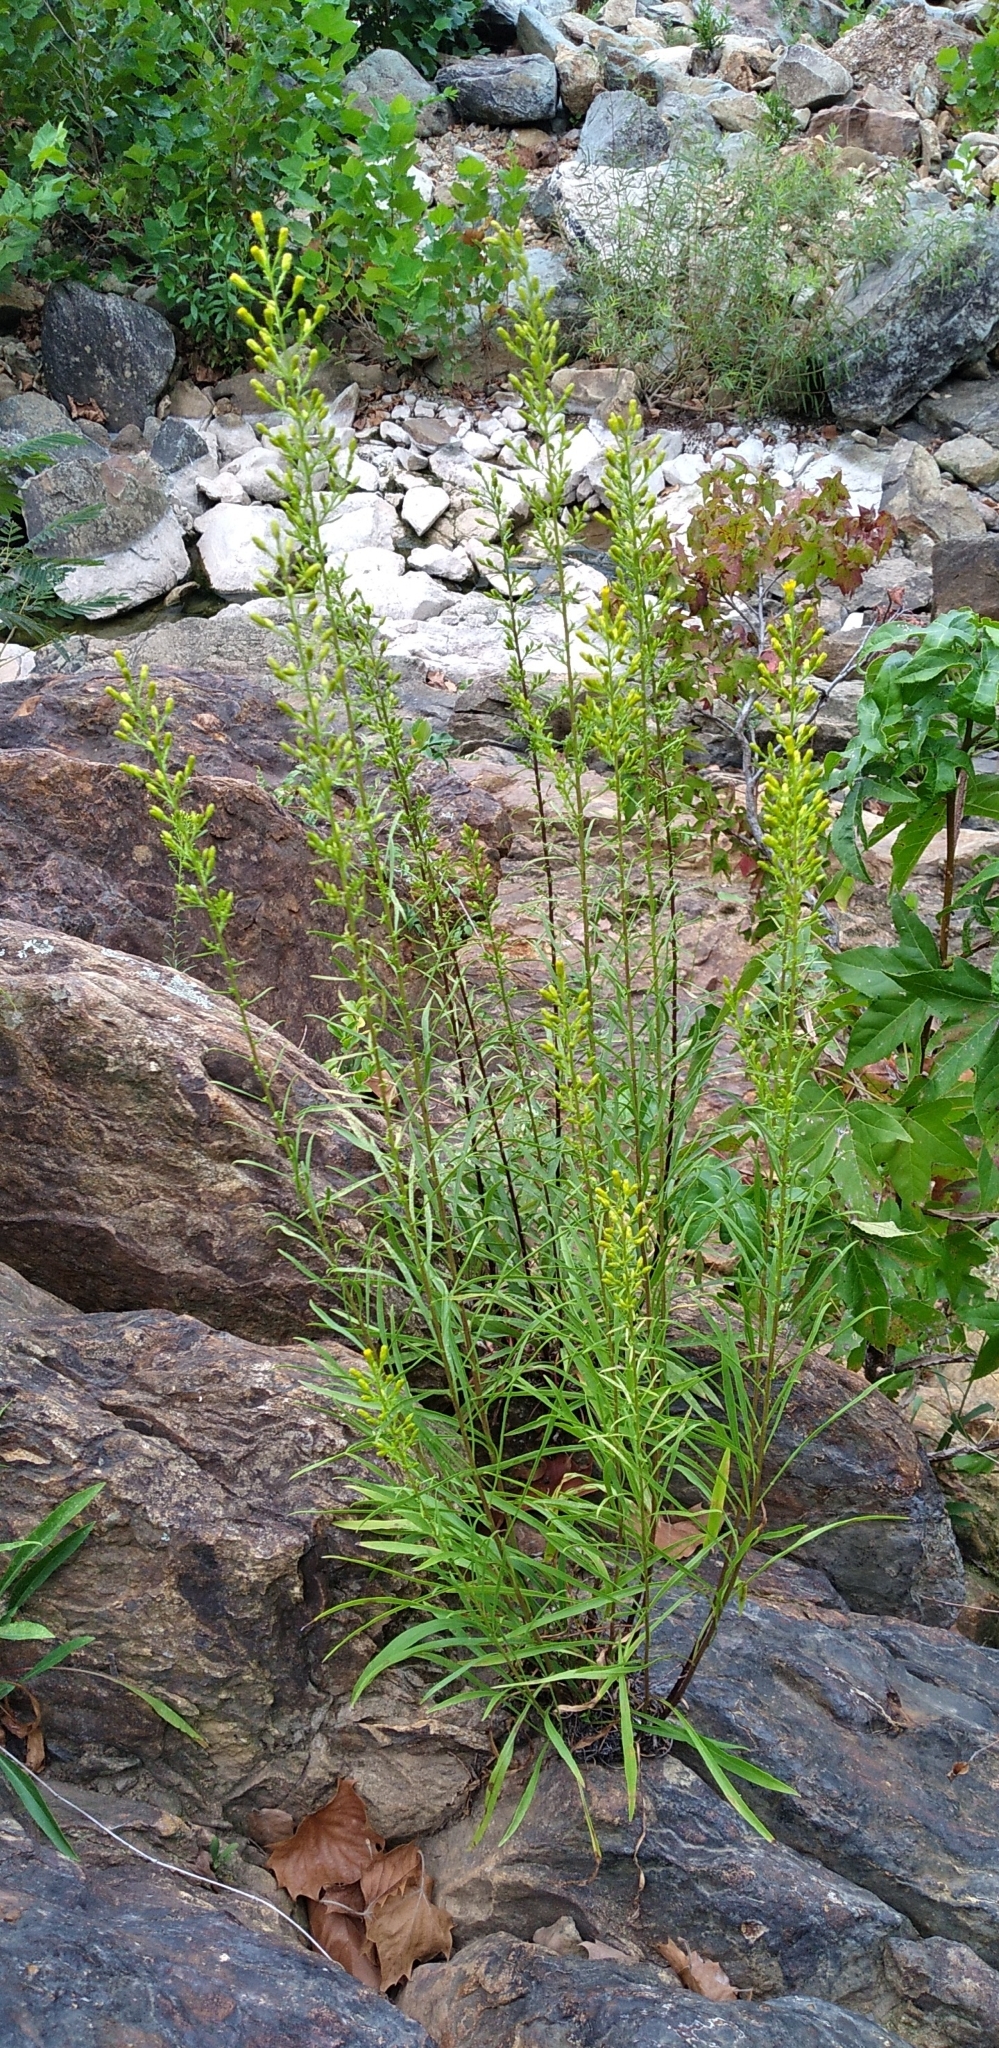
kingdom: Plantae
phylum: Tracheophyta
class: Magnoliopsida
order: Asterales
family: Asteraceae
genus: Solidago
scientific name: Solidago plumosa
